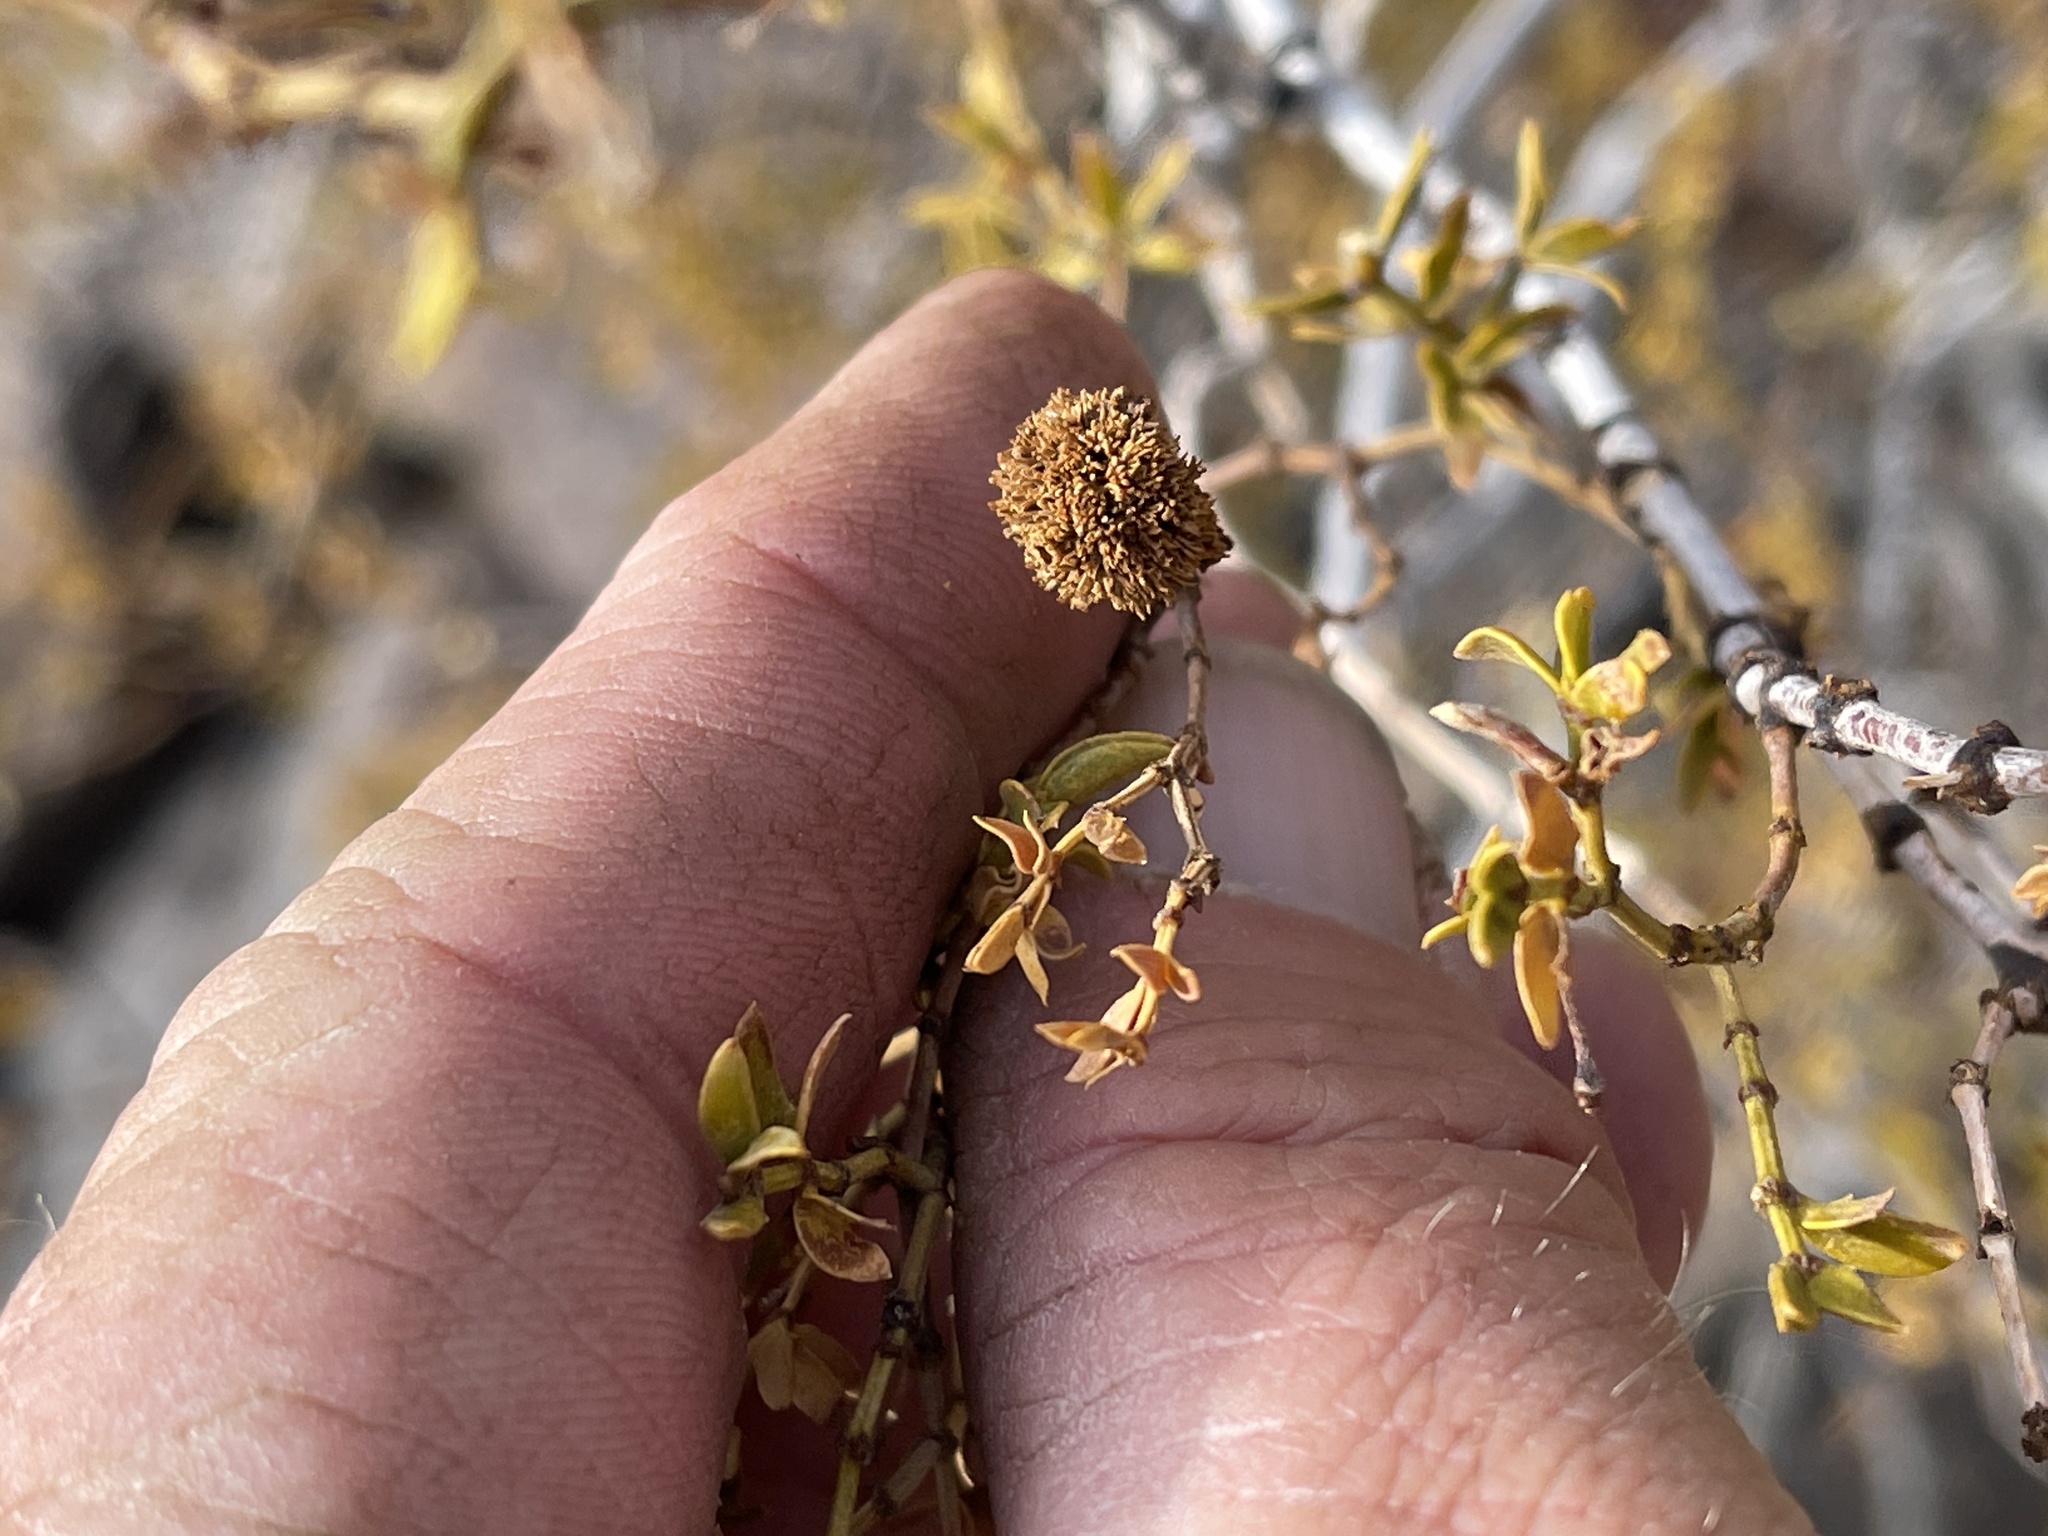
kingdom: Animalia
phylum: Arthropoda
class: Insecta
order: Diptera
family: Cecidomyiidae
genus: Asphondylia
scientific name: Asphondylia auripila
